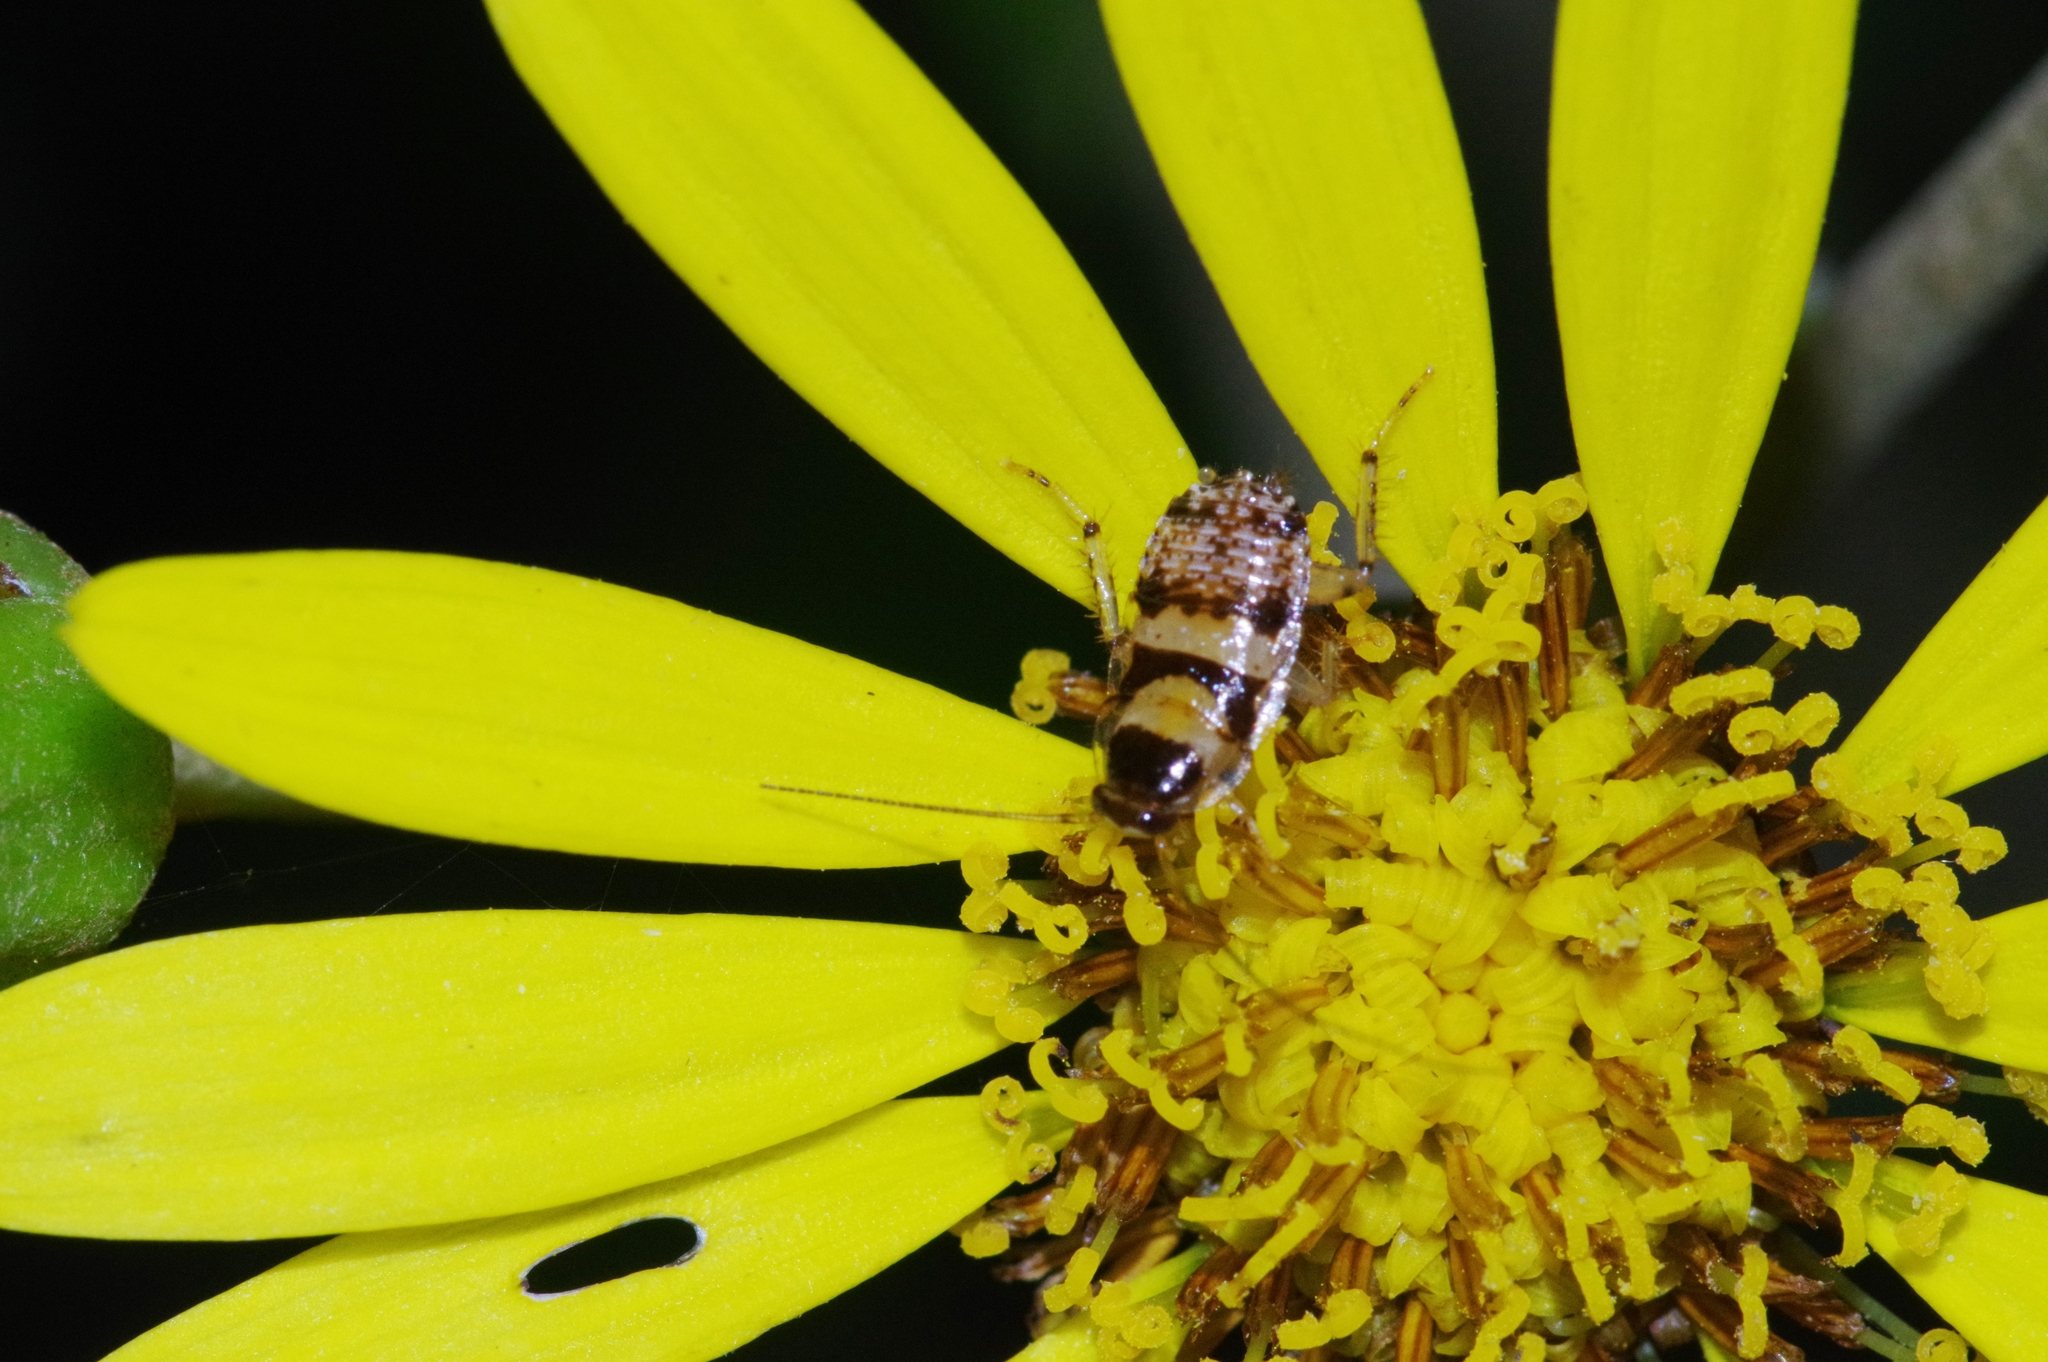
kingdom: Animalia
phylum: Arthropoda
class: Insecta
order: Blattodea
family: Ectobiidae
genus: Balta
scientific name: Balta notulata
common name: Cockroach
